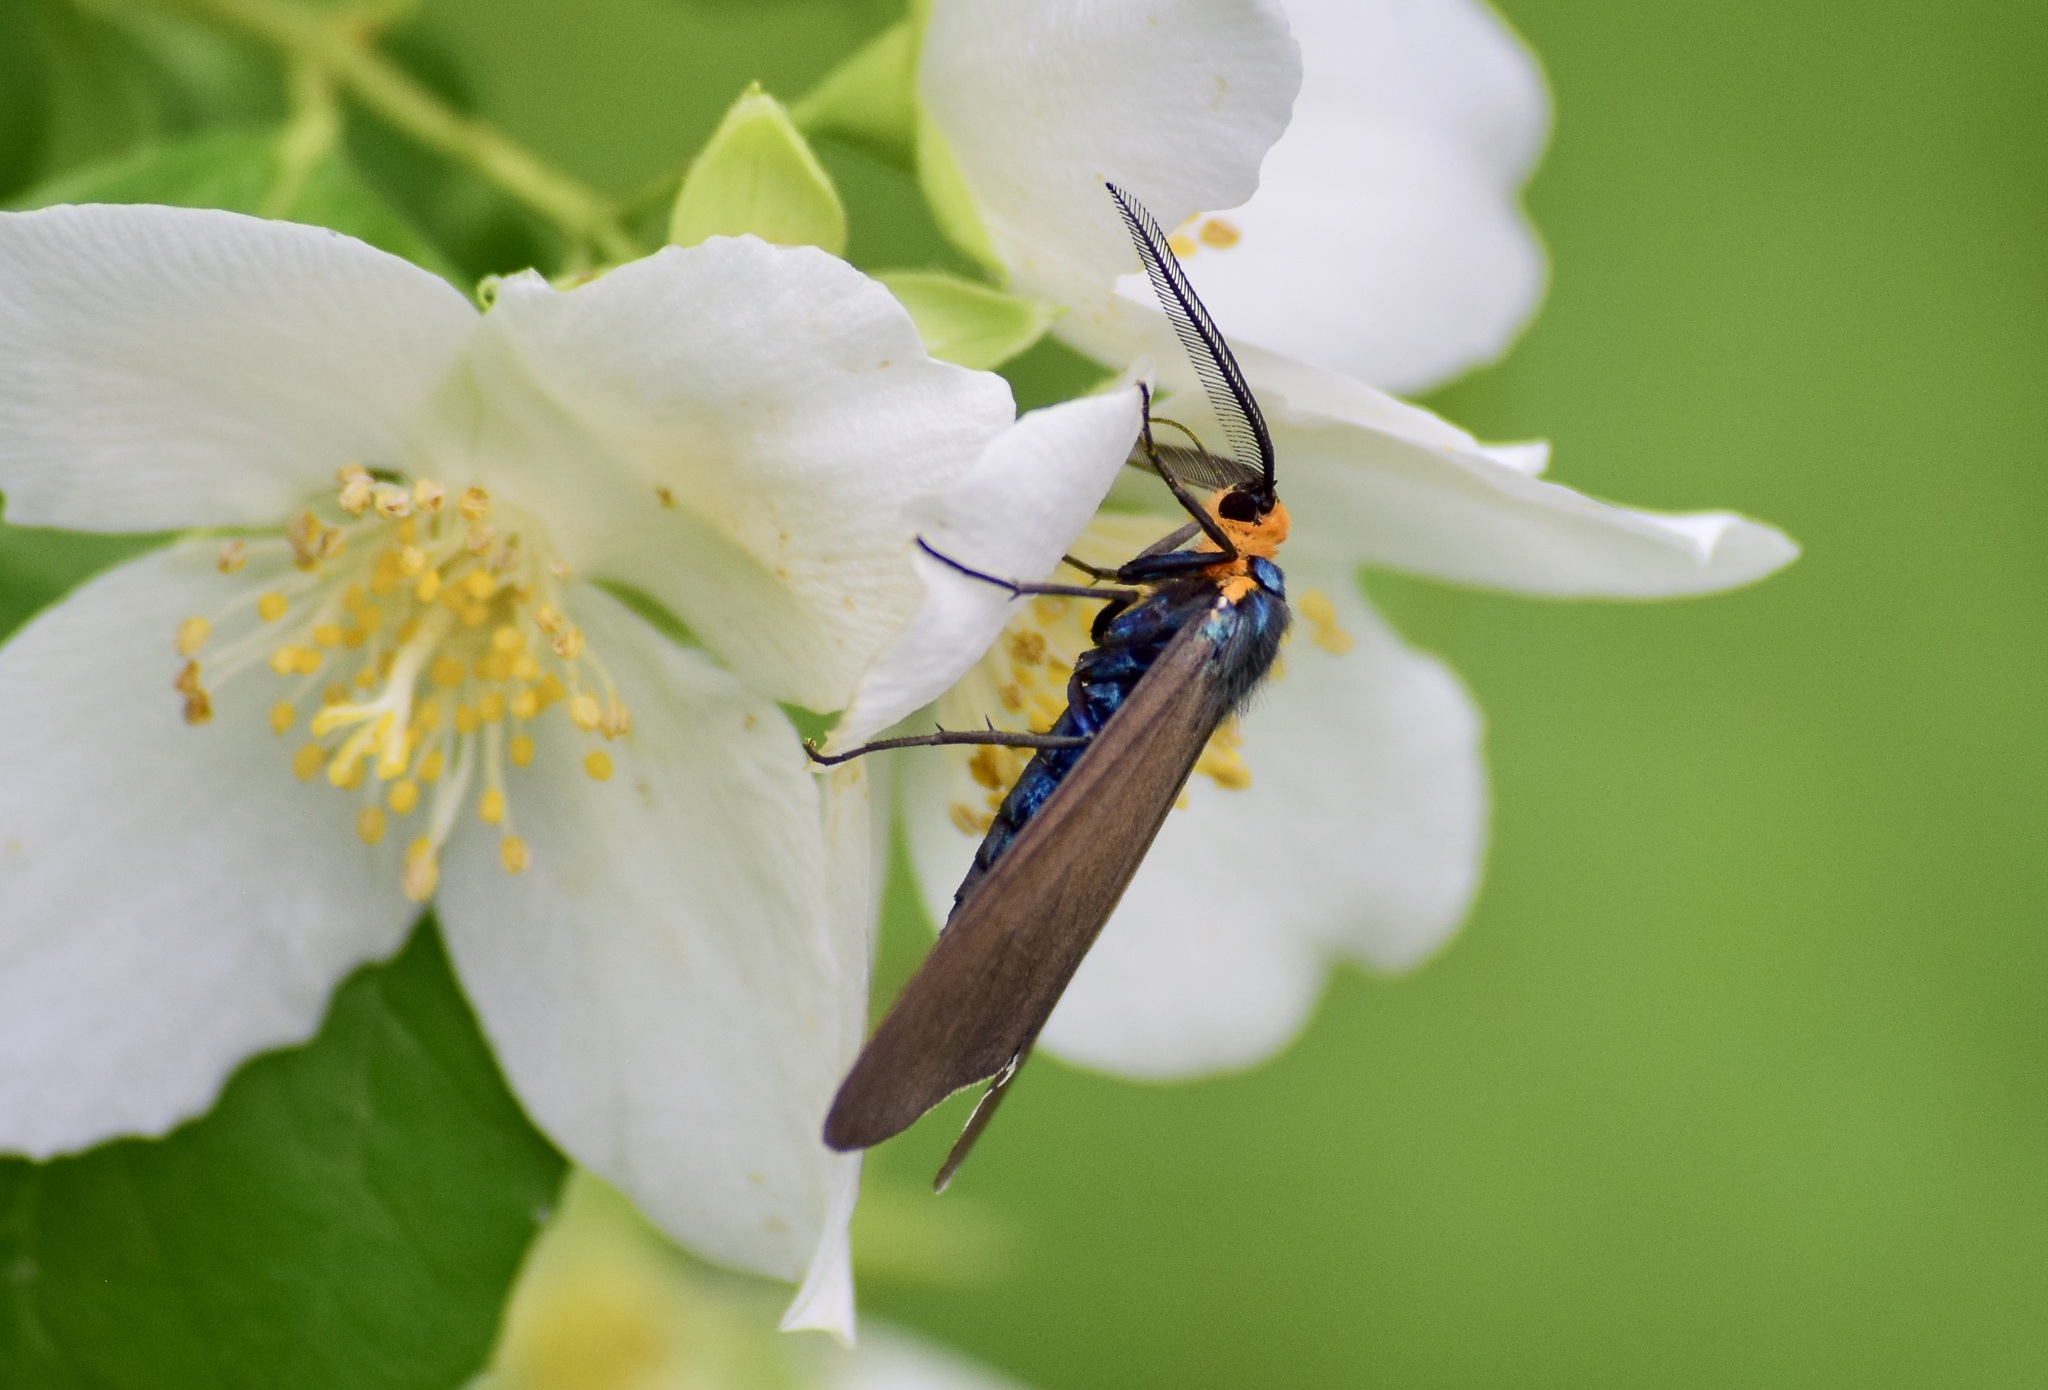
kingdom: Animalia
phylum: Arthropoda
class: Insecta
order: Lepidoptera
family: Erebidae
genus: Ctenucha
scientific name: Ctenucha virginica
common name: Virginia ctenucha moth
